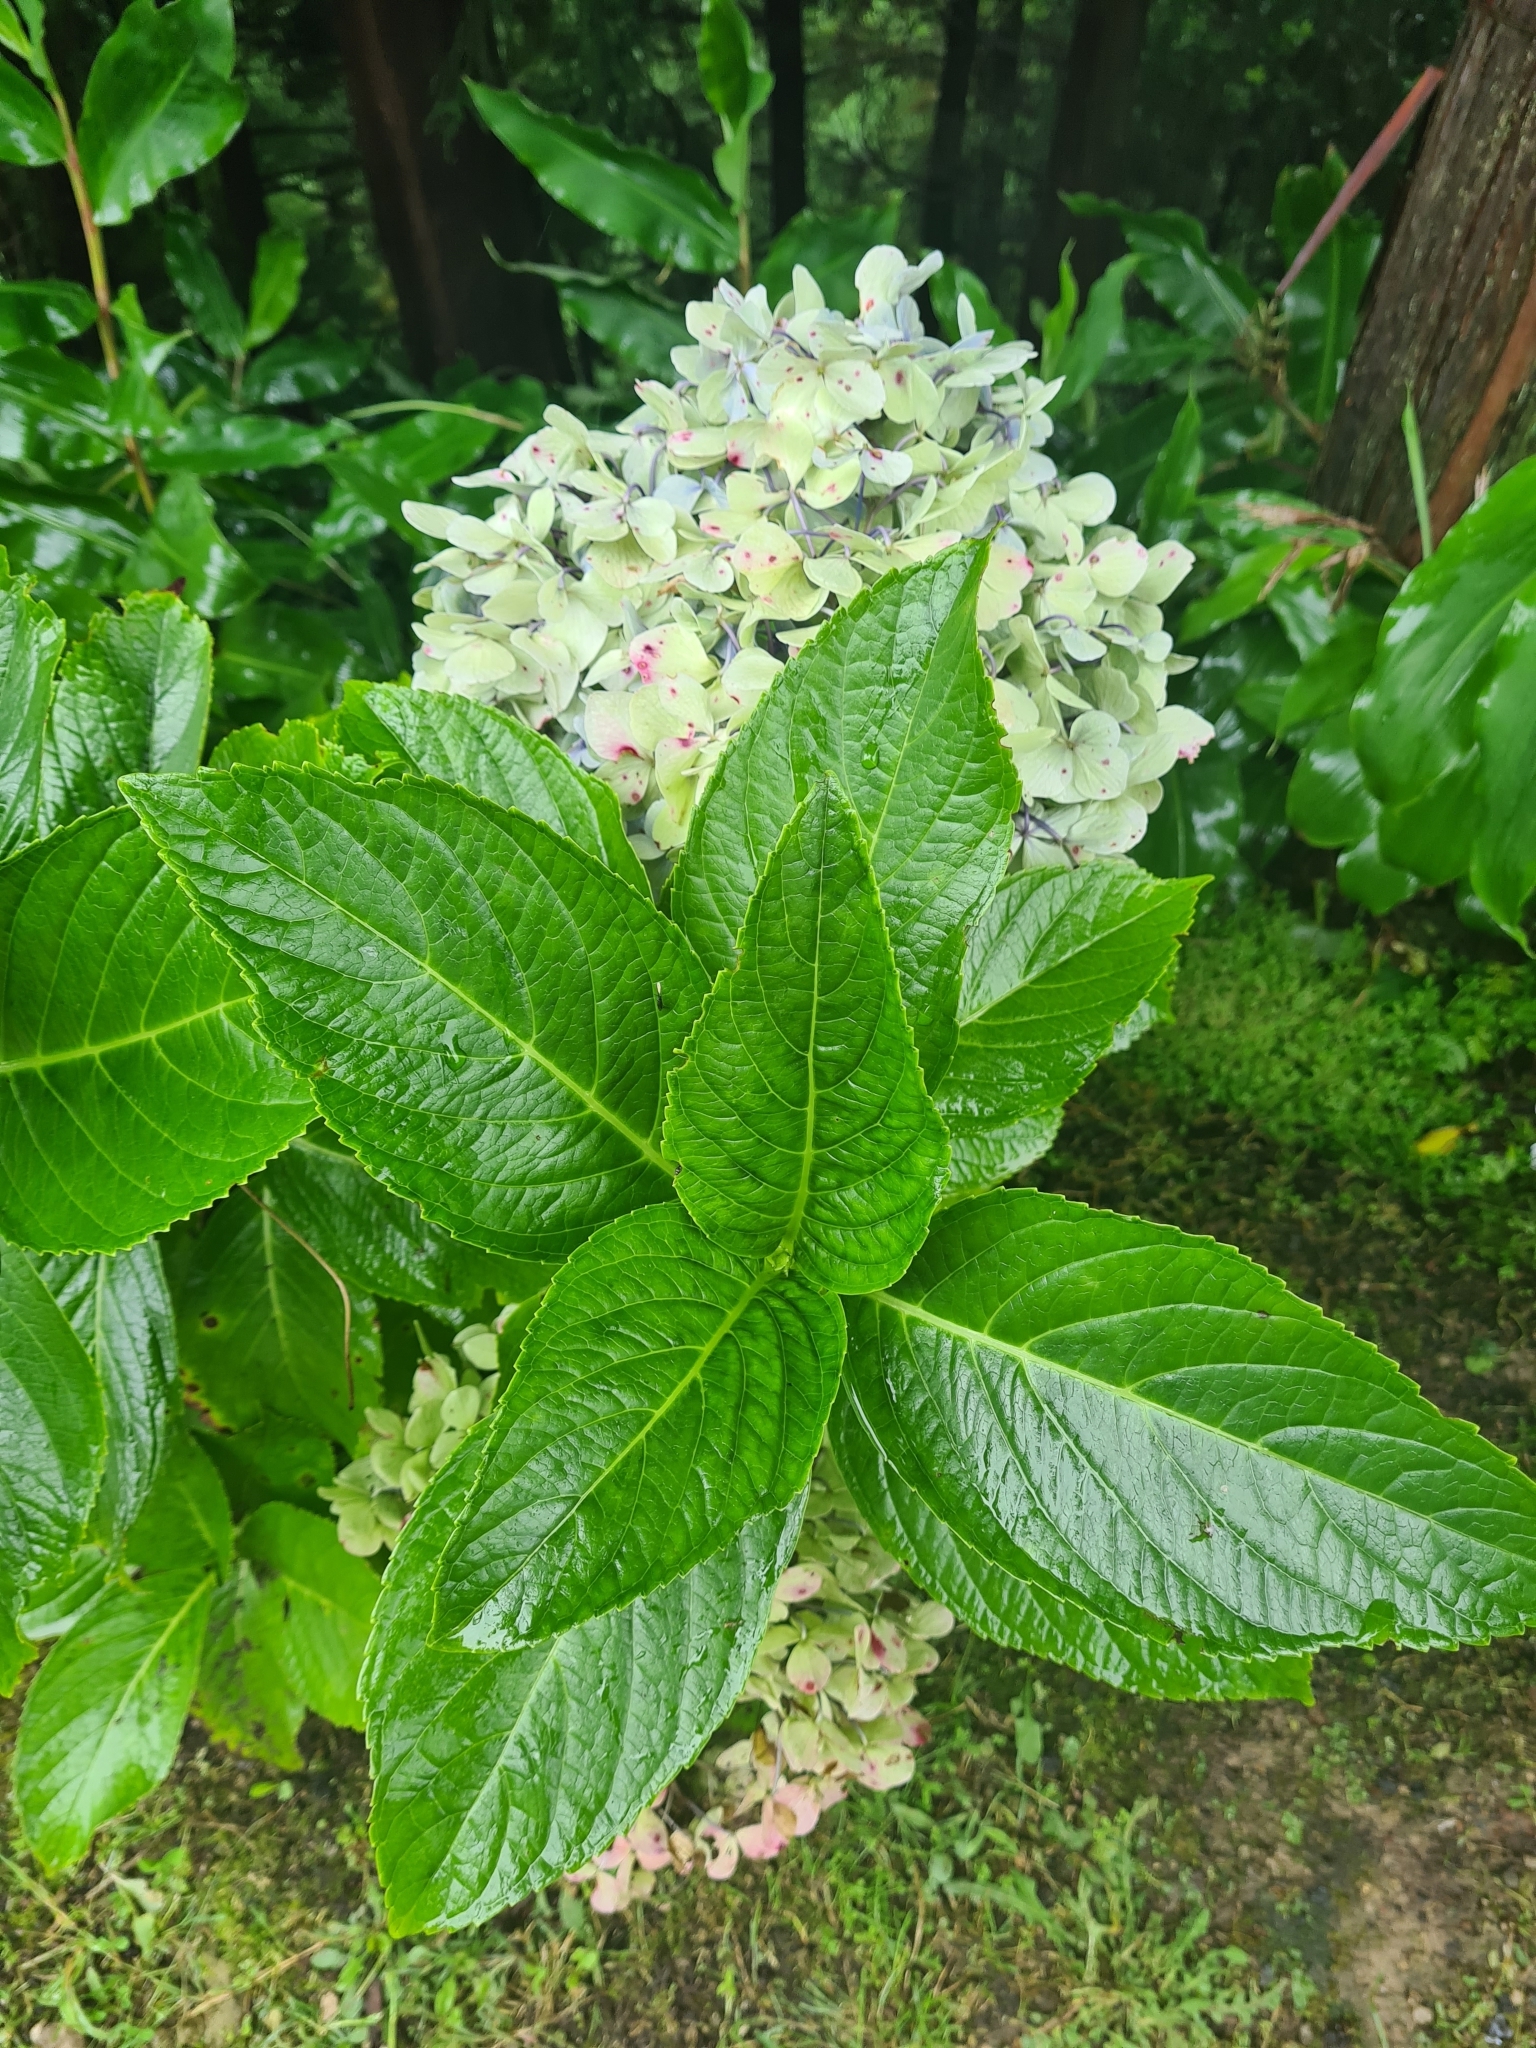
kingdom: Plantae
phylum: Tracheophyta
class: Magnoliopsida
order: Cornales
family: Hydrangeaceae
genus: Hydrangea
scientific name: Hydrangea macrophylla
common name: Hydrangea
